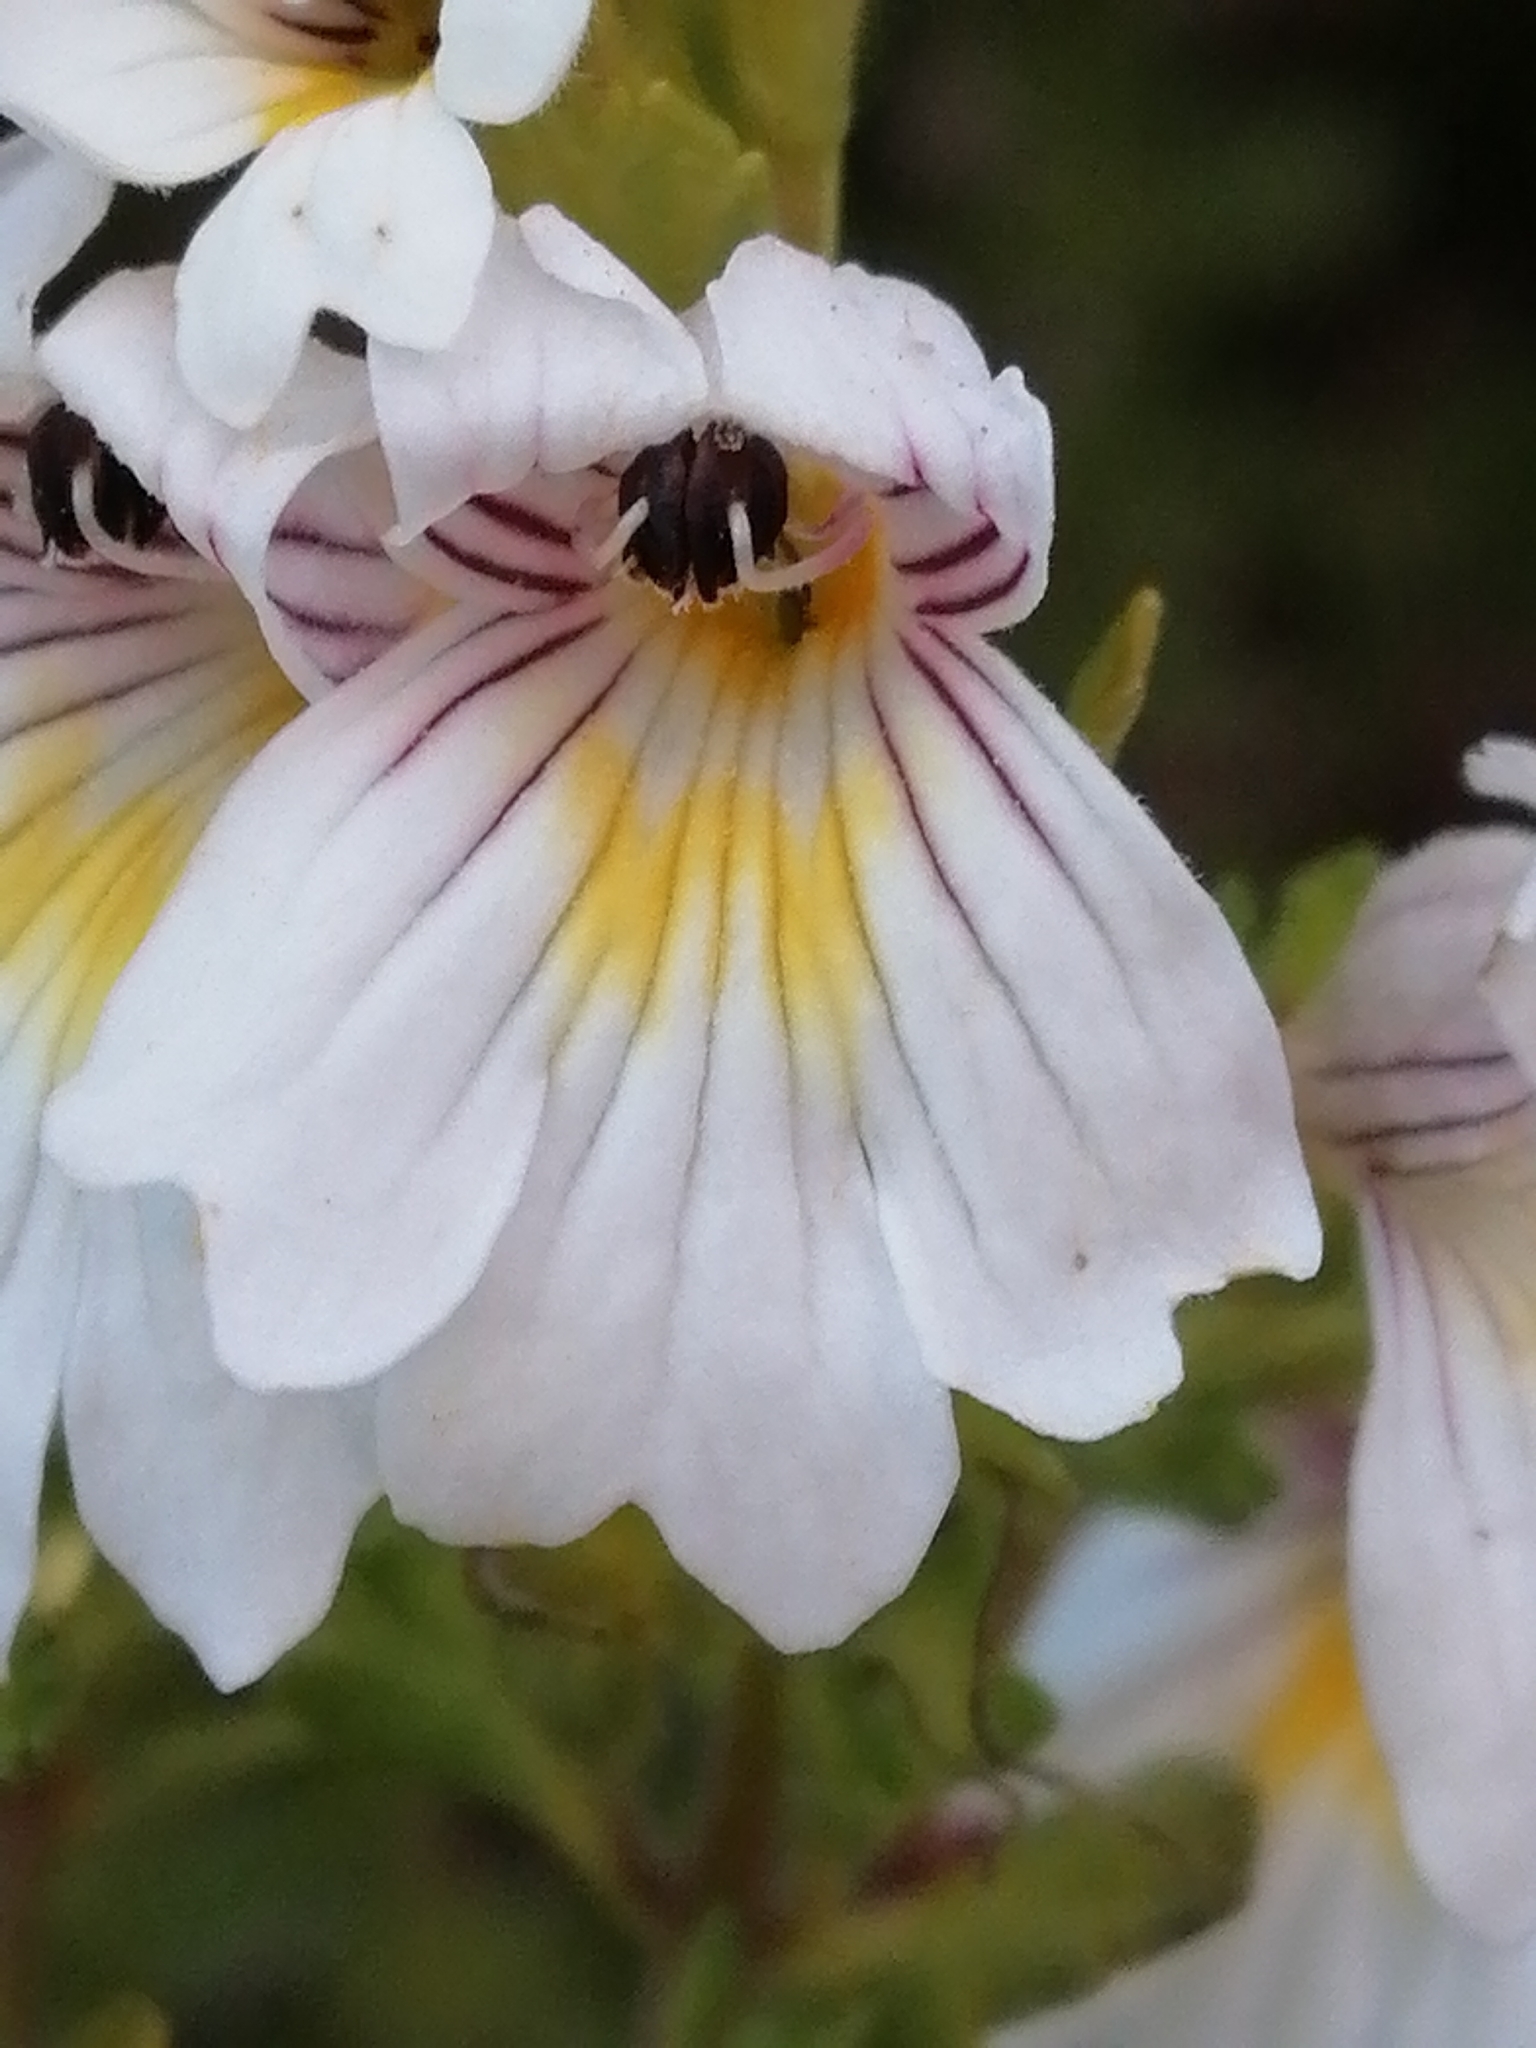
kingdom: Plantae
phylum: Tracheophyta
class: Magnoliopsida
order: Lamiales
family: Orobanchaceae
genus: Euphrasia
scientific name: Euphrasia cuneata
